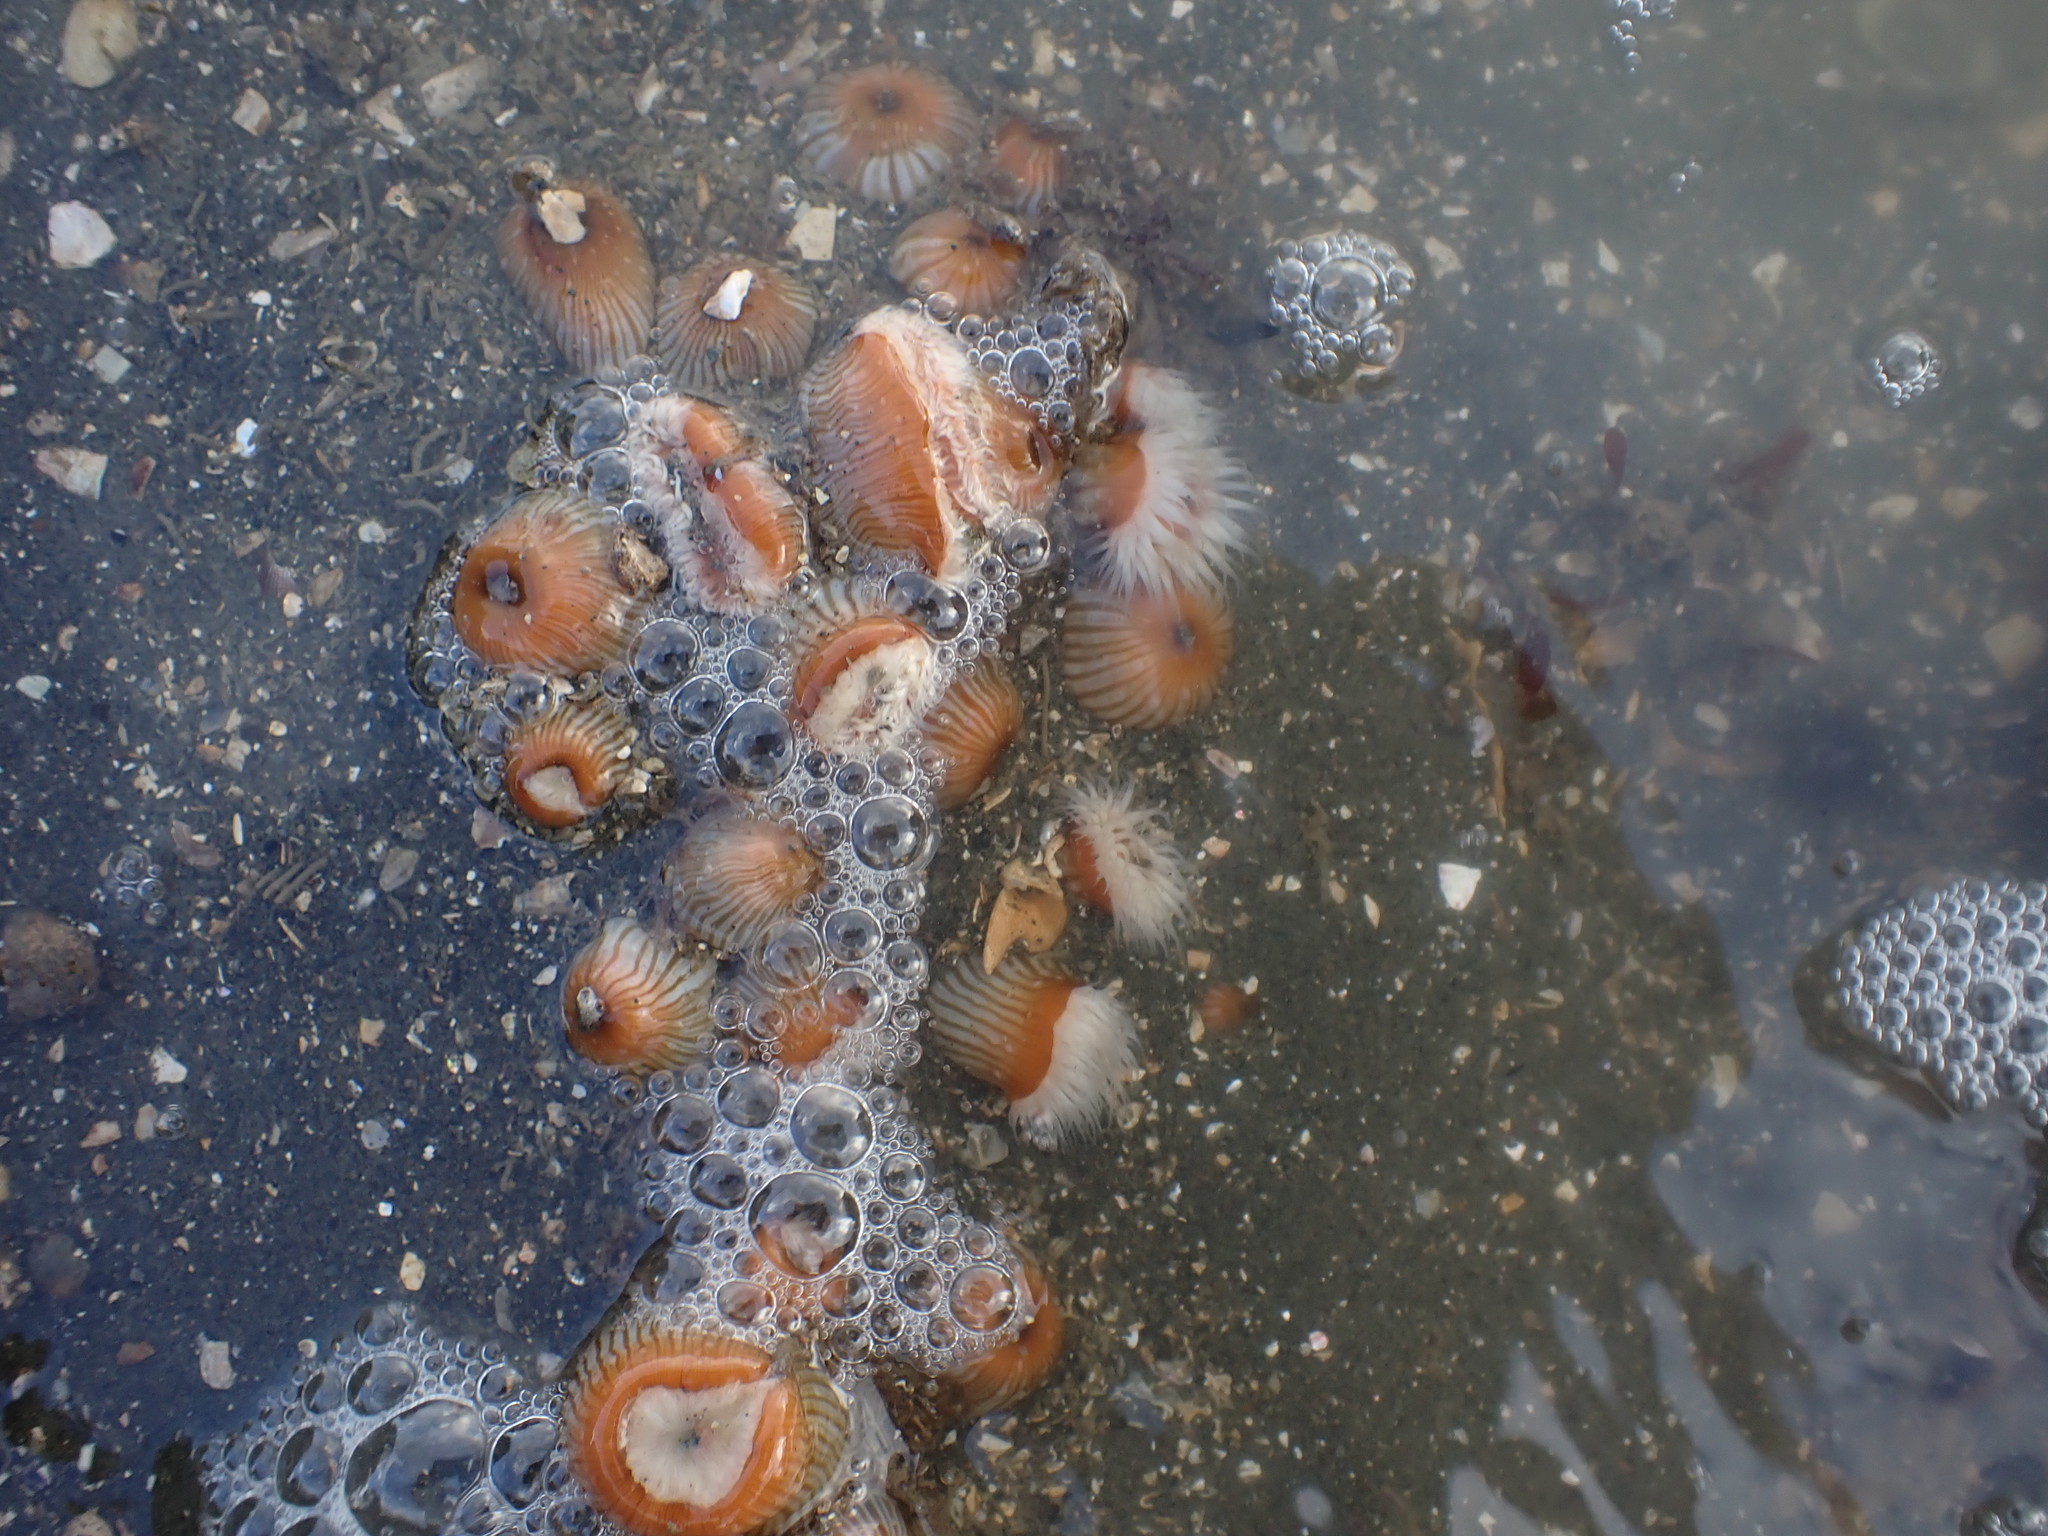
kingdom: Animalia
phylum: Cnidaria
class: Anthozoa
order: Actiniaria
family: Sagartiidae
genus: Anthothoe
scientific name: Anthothoe albocincta
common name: Orange striped anemone
